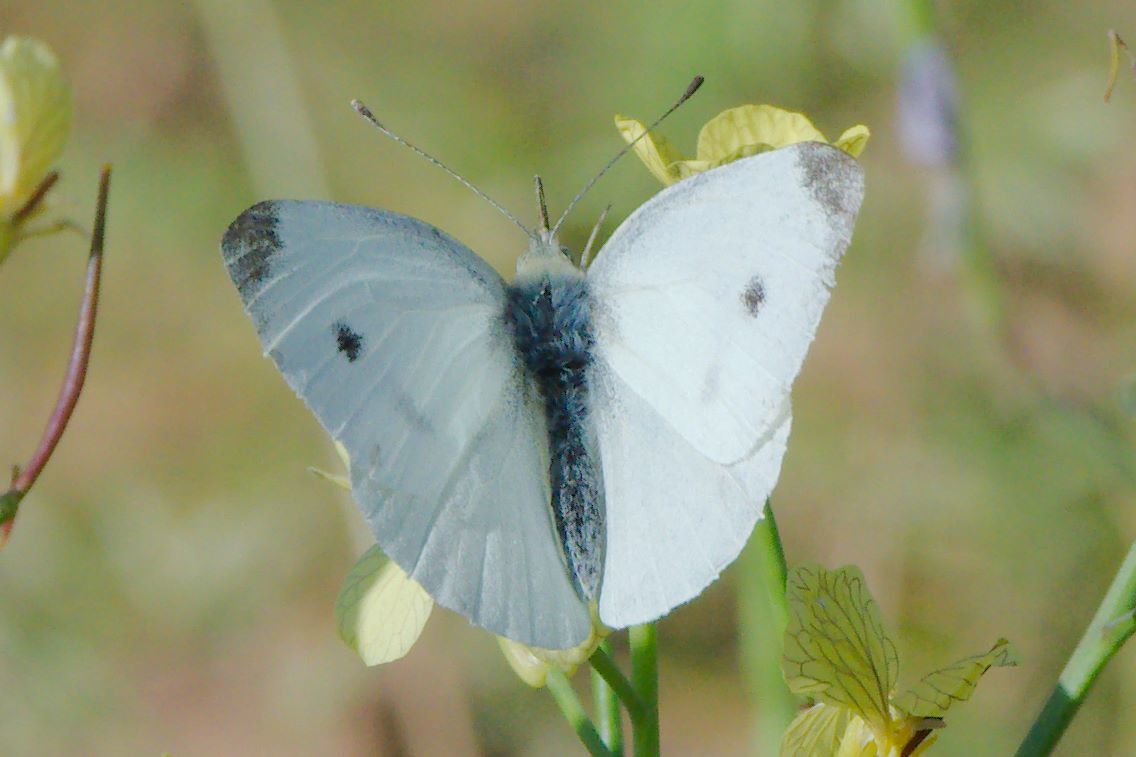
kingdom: Animalia
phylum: Arthropoda
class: Insecta
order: Lepidoptera
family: Pieridae
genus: Pieris
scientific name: Pieris rapae
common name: Small white
